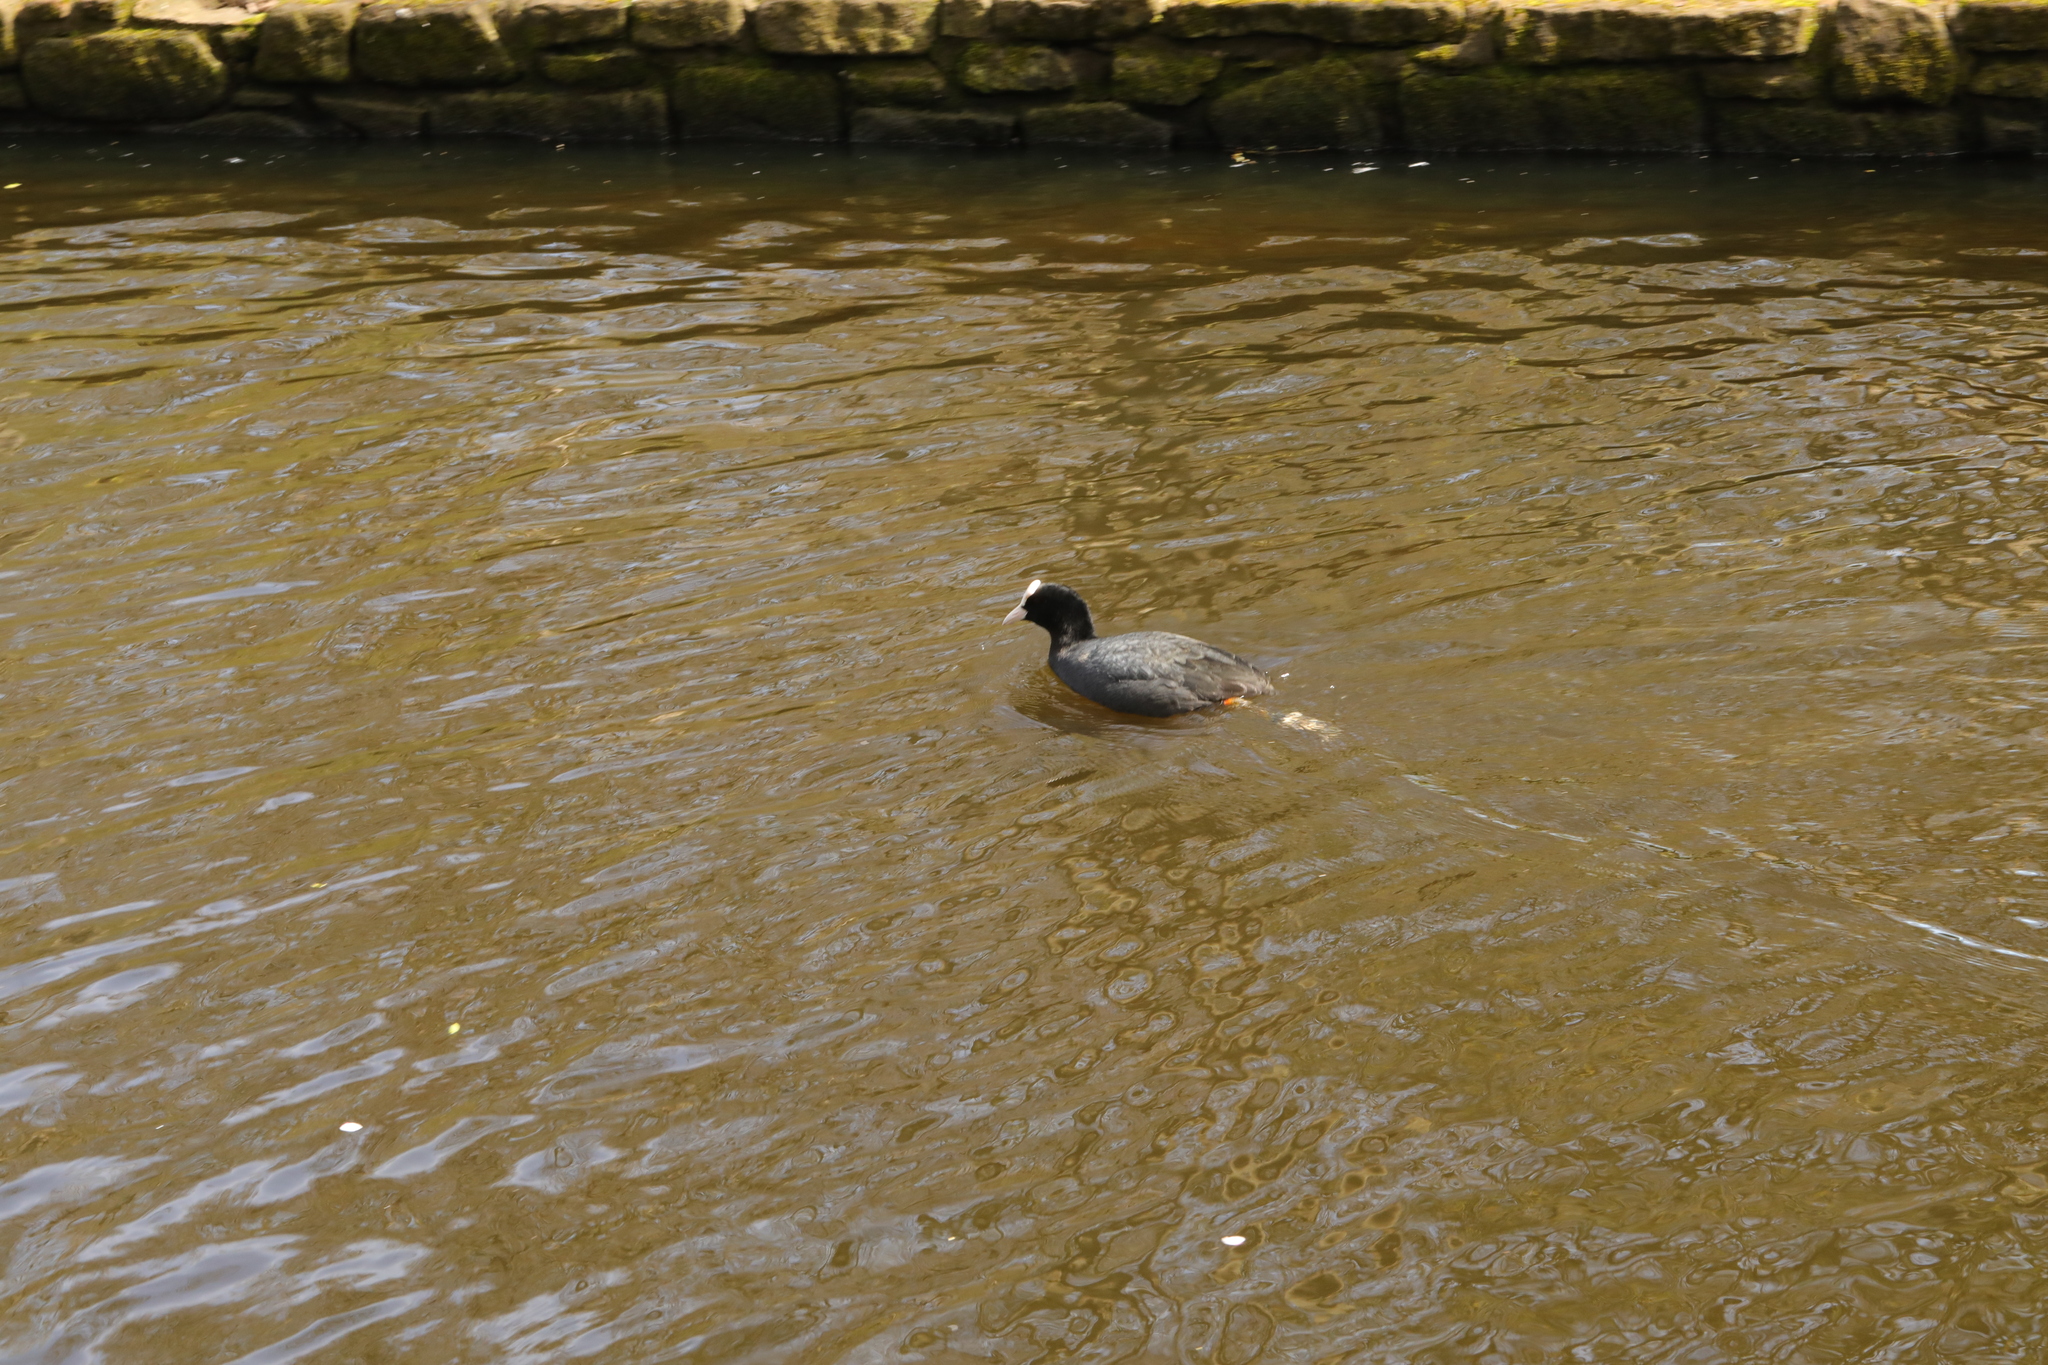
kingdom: Animalia
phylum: Chordata
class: Aves
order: Gruiformes
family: Rallidae
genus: Fulica
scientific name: Fulica atra
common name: Eurasian coot
